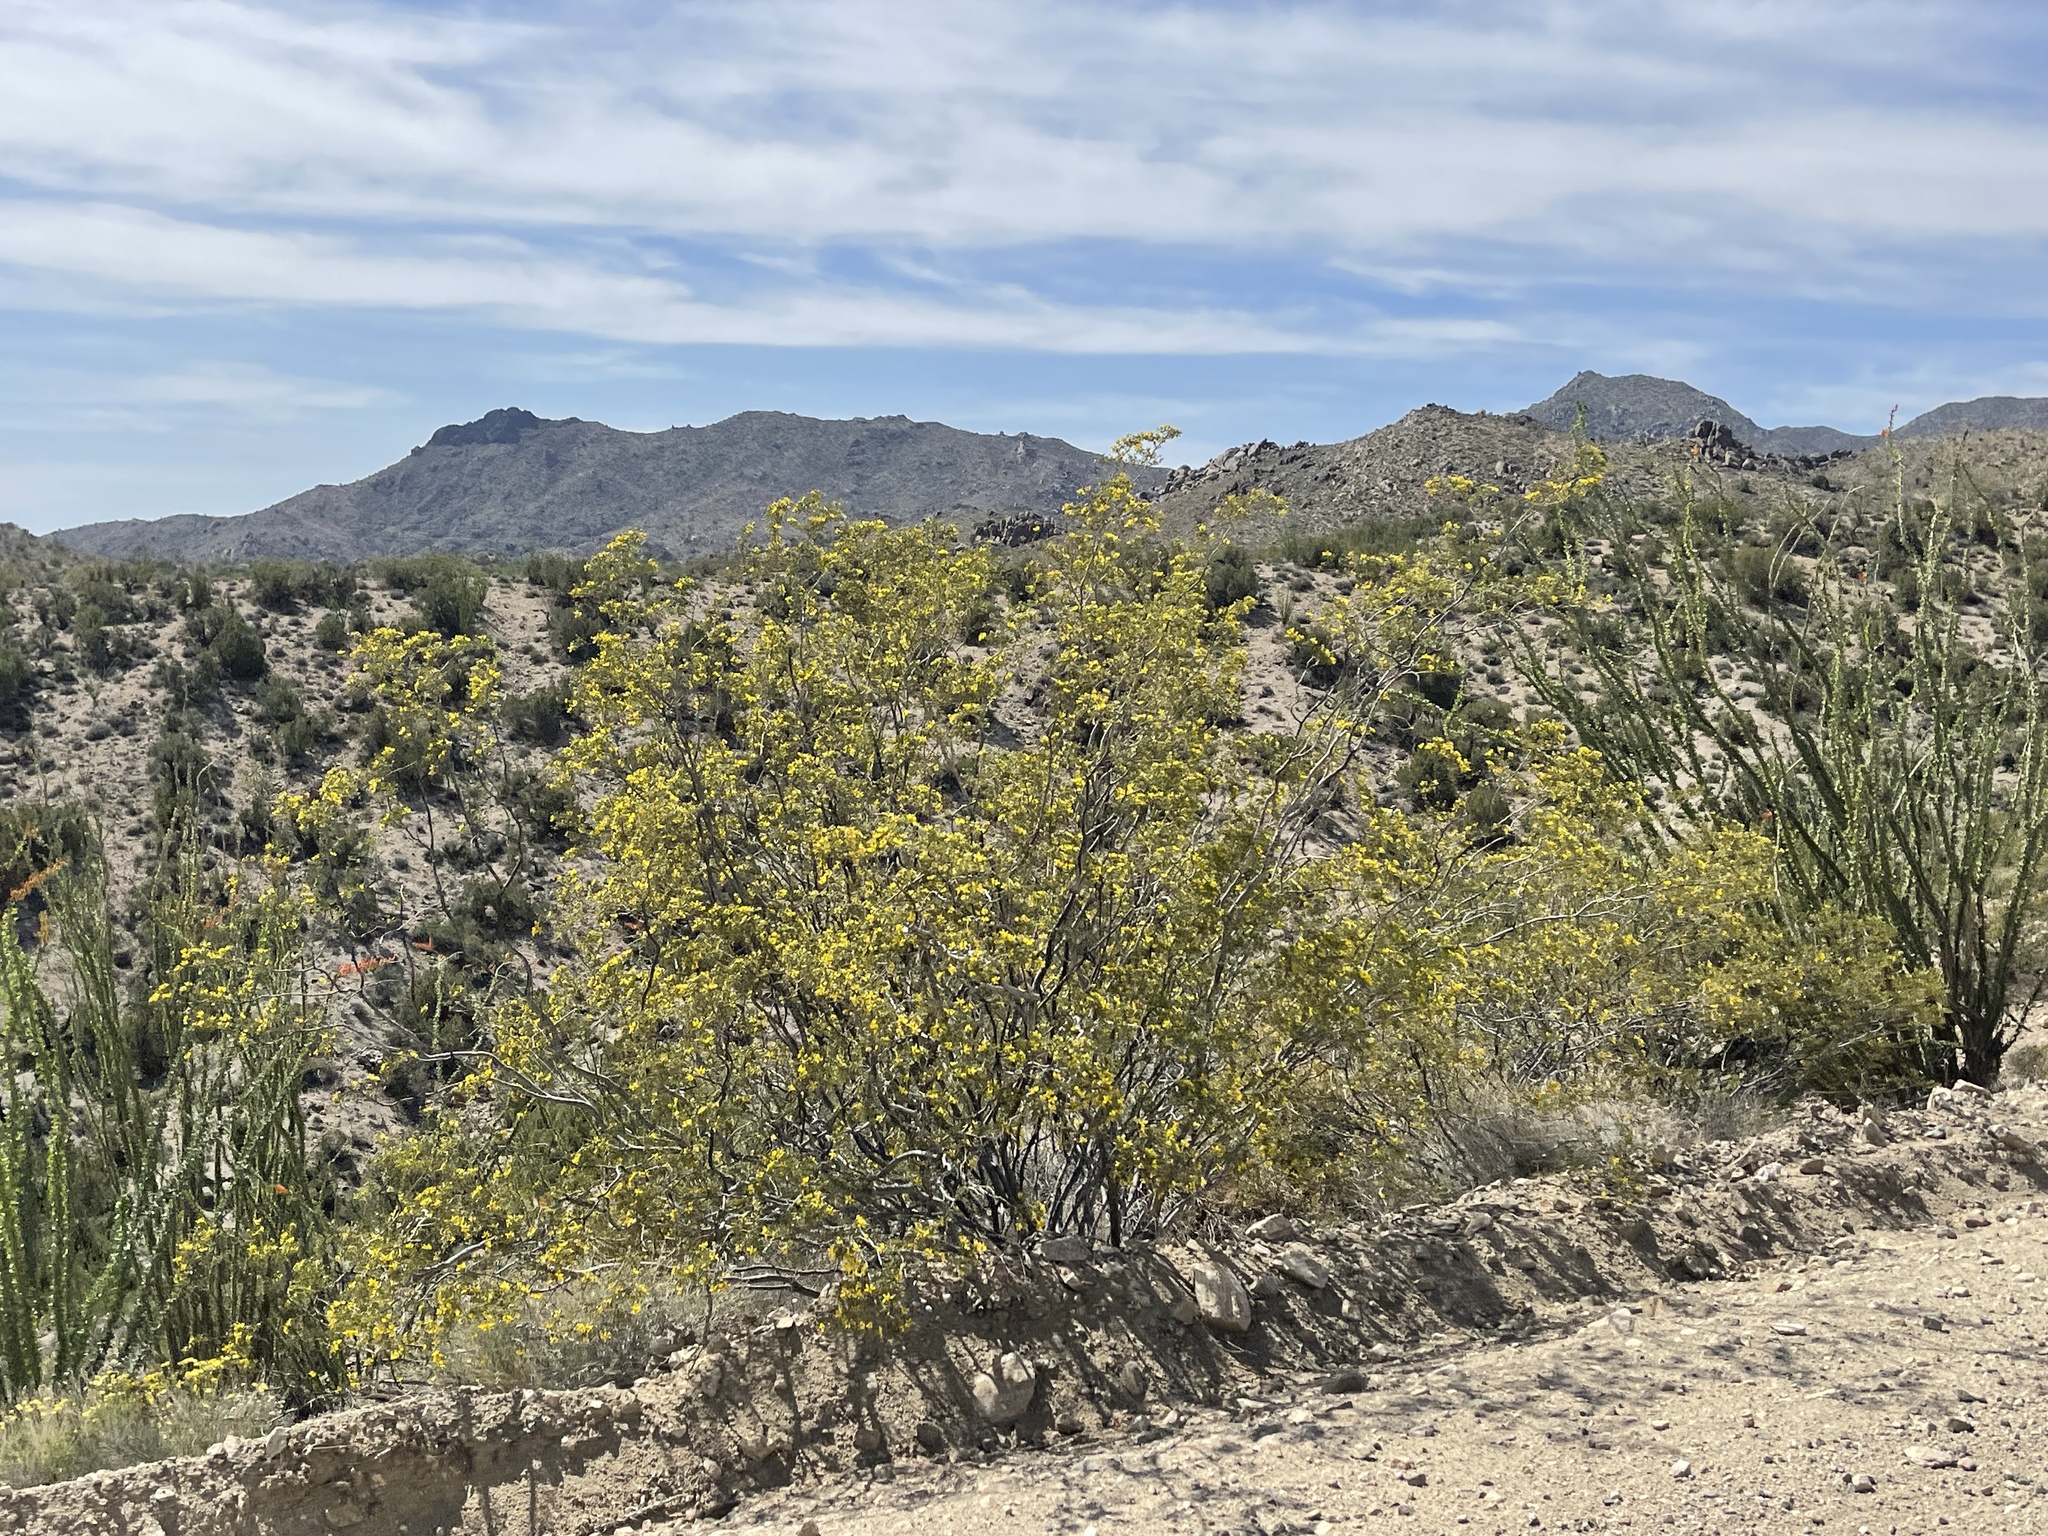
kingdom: Plantae
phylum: Tracheophyta
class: Magnoliopsida
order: Zygophyllales
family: Zygophyllaceae
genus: Larrea
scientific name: Larrea tridentata
